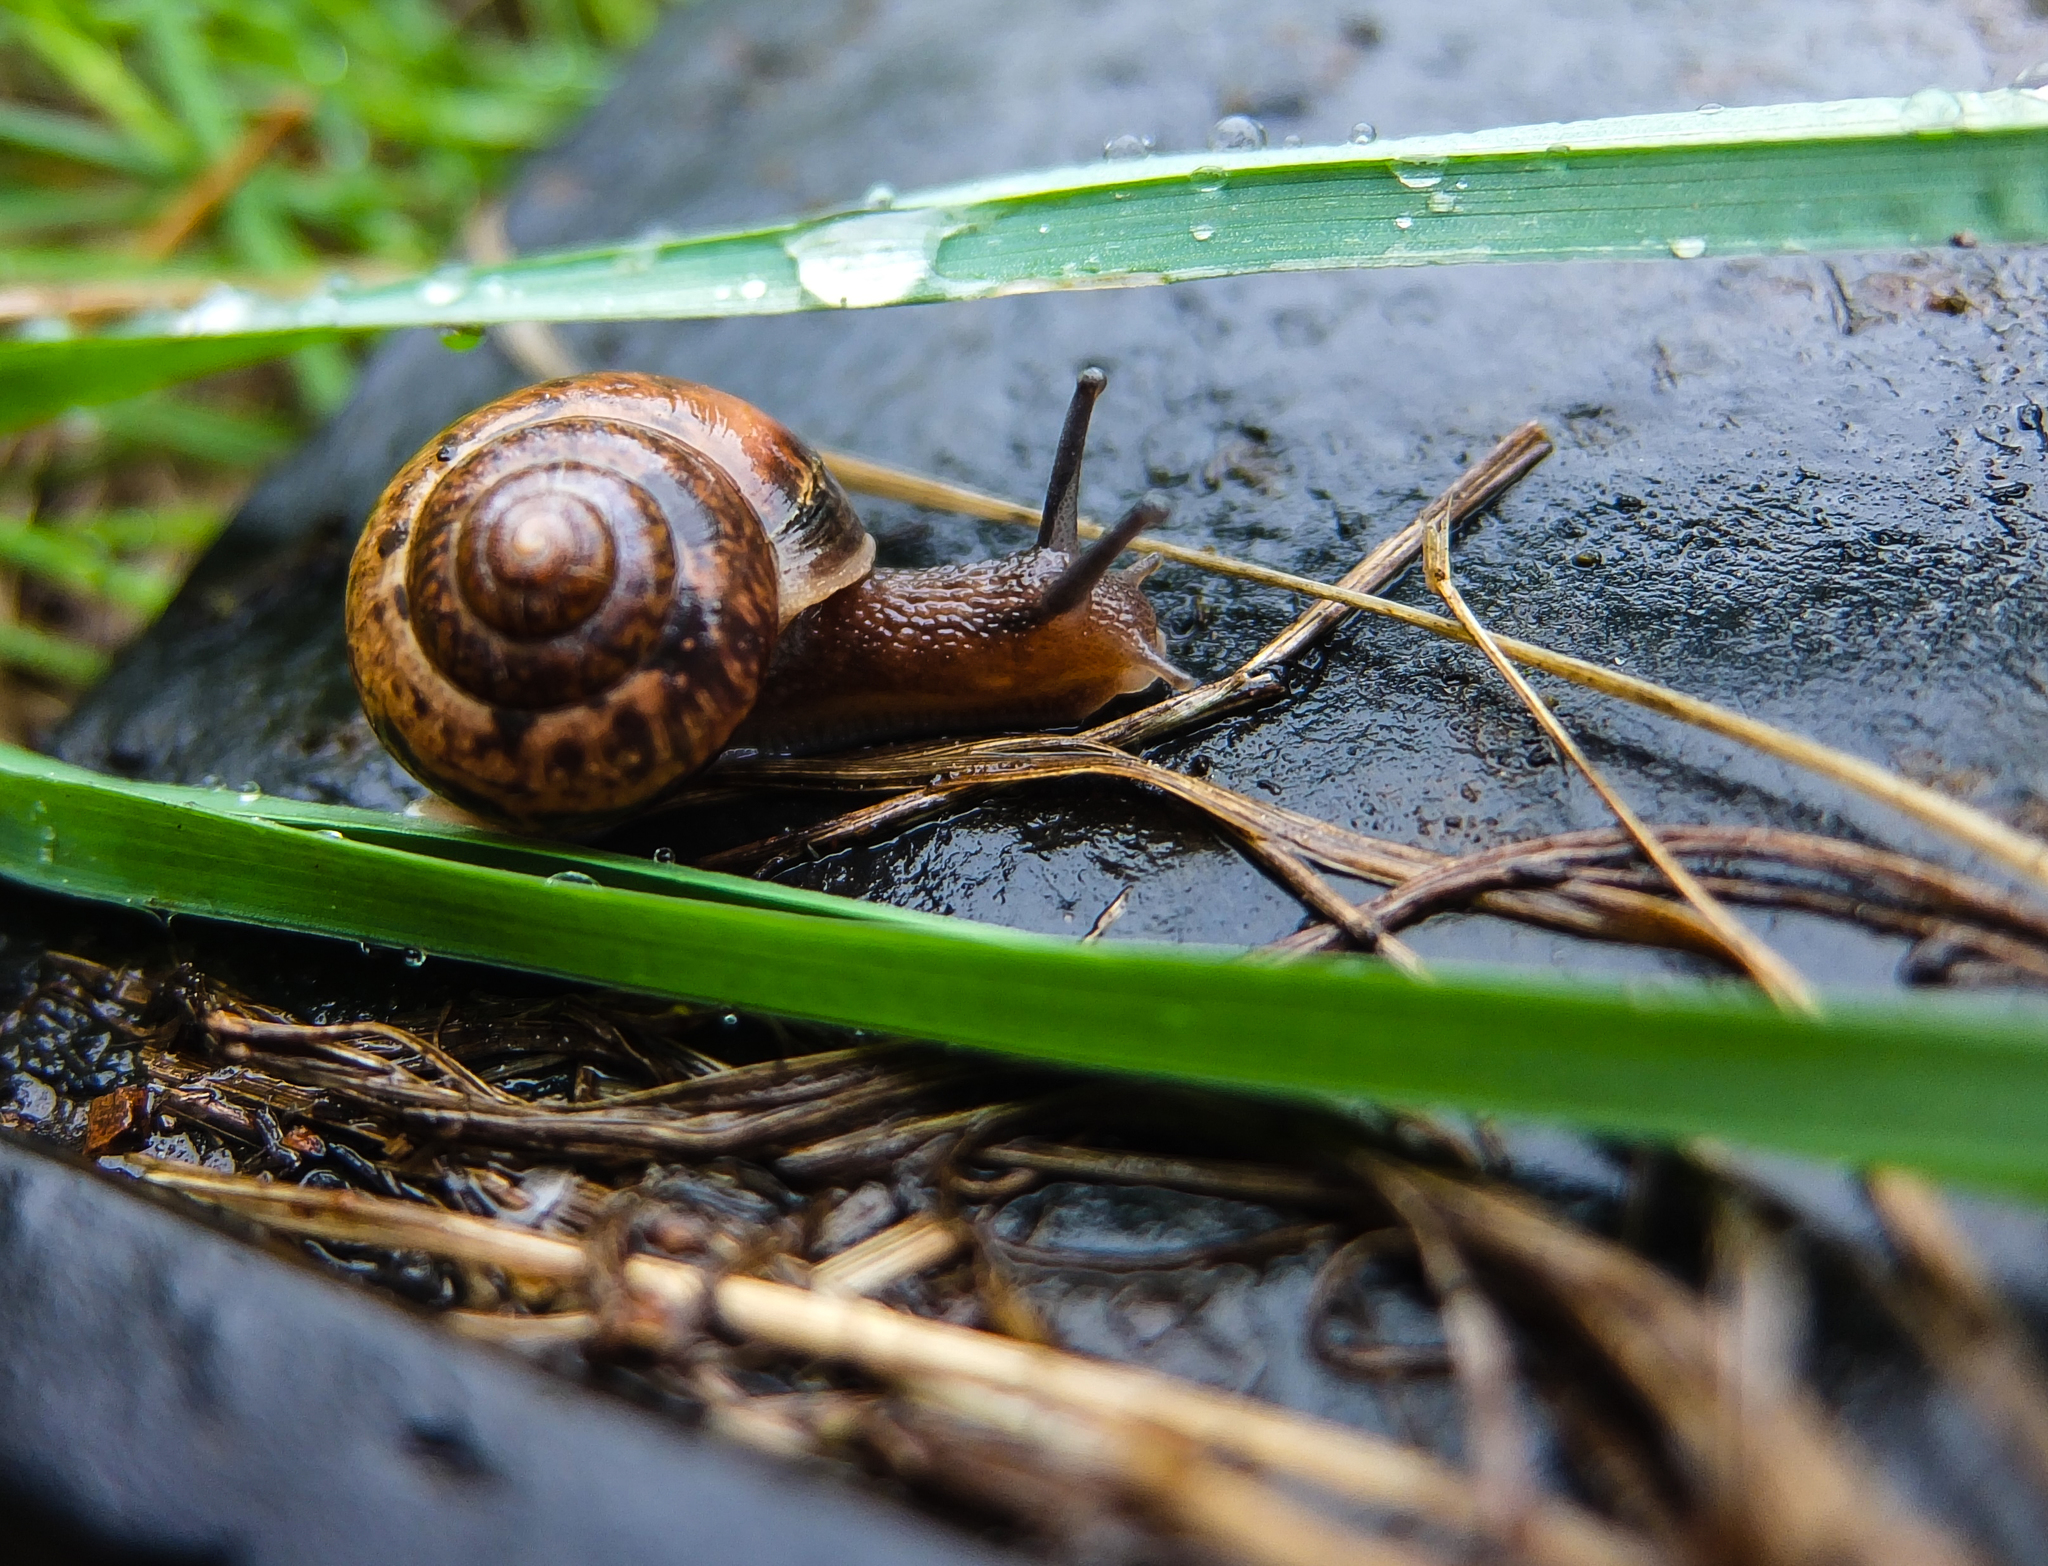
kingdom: Animalia
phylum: Mollusca
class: Gastropoda
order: Stylommatophora
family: Camaenidae
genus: Fruticicola
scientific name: Fruticicola fruticum
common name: Bush snail
